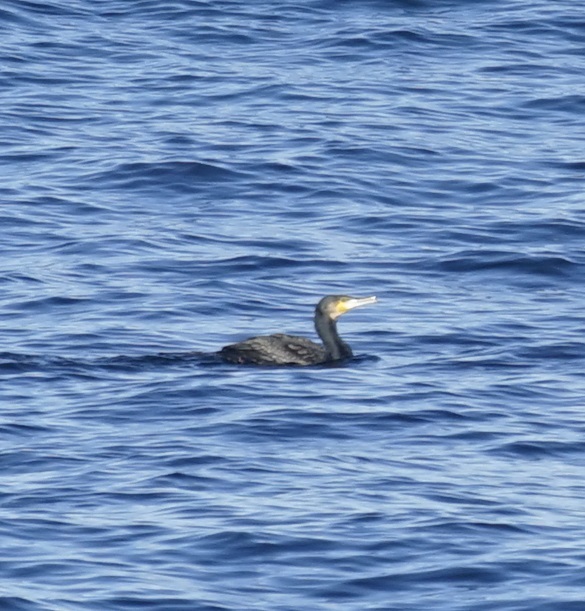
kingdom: Animalia
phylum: Chordata
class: Aves
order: Suliformes
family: Phalacrocoracidae
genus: Phalacrocorax
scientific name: Phalacrocorax carbo
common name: Great cormorant
